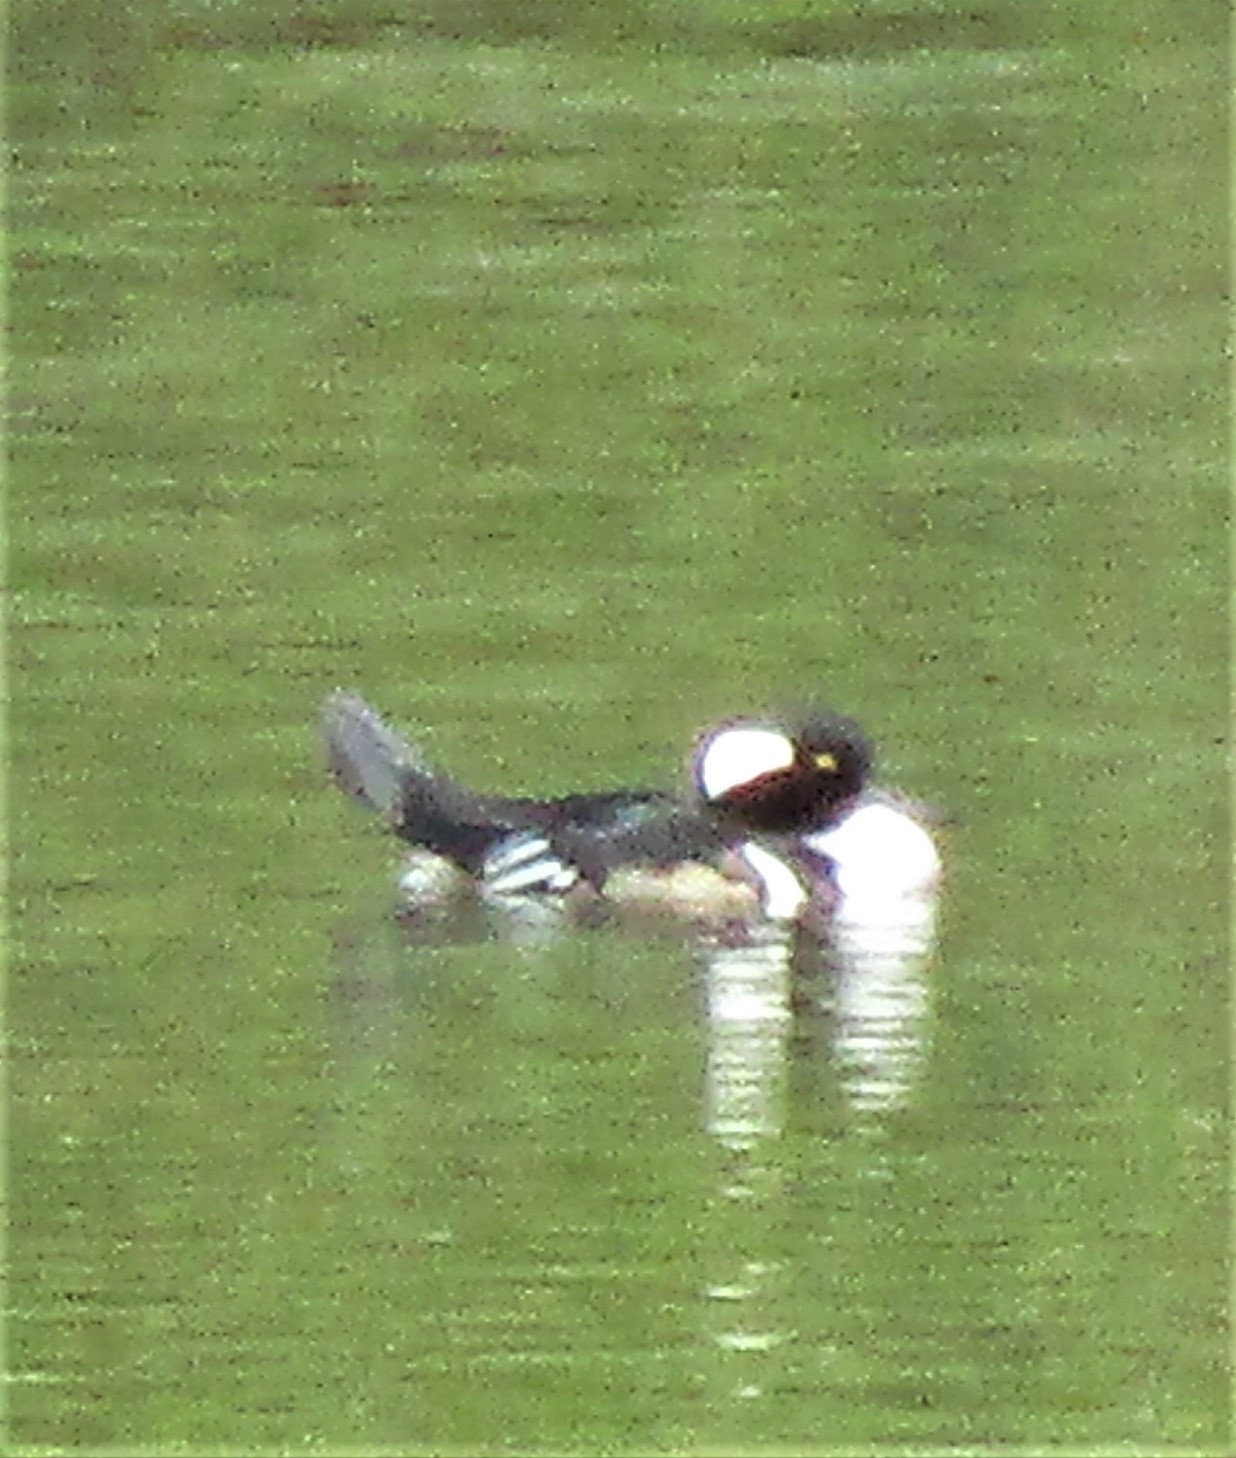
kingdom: Animalia
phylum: Chordata
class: Aves
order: Anseriformes
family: Anatidae
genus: Lophodytes
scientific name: Lophodytes cucullatus
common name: Hooded merganser
